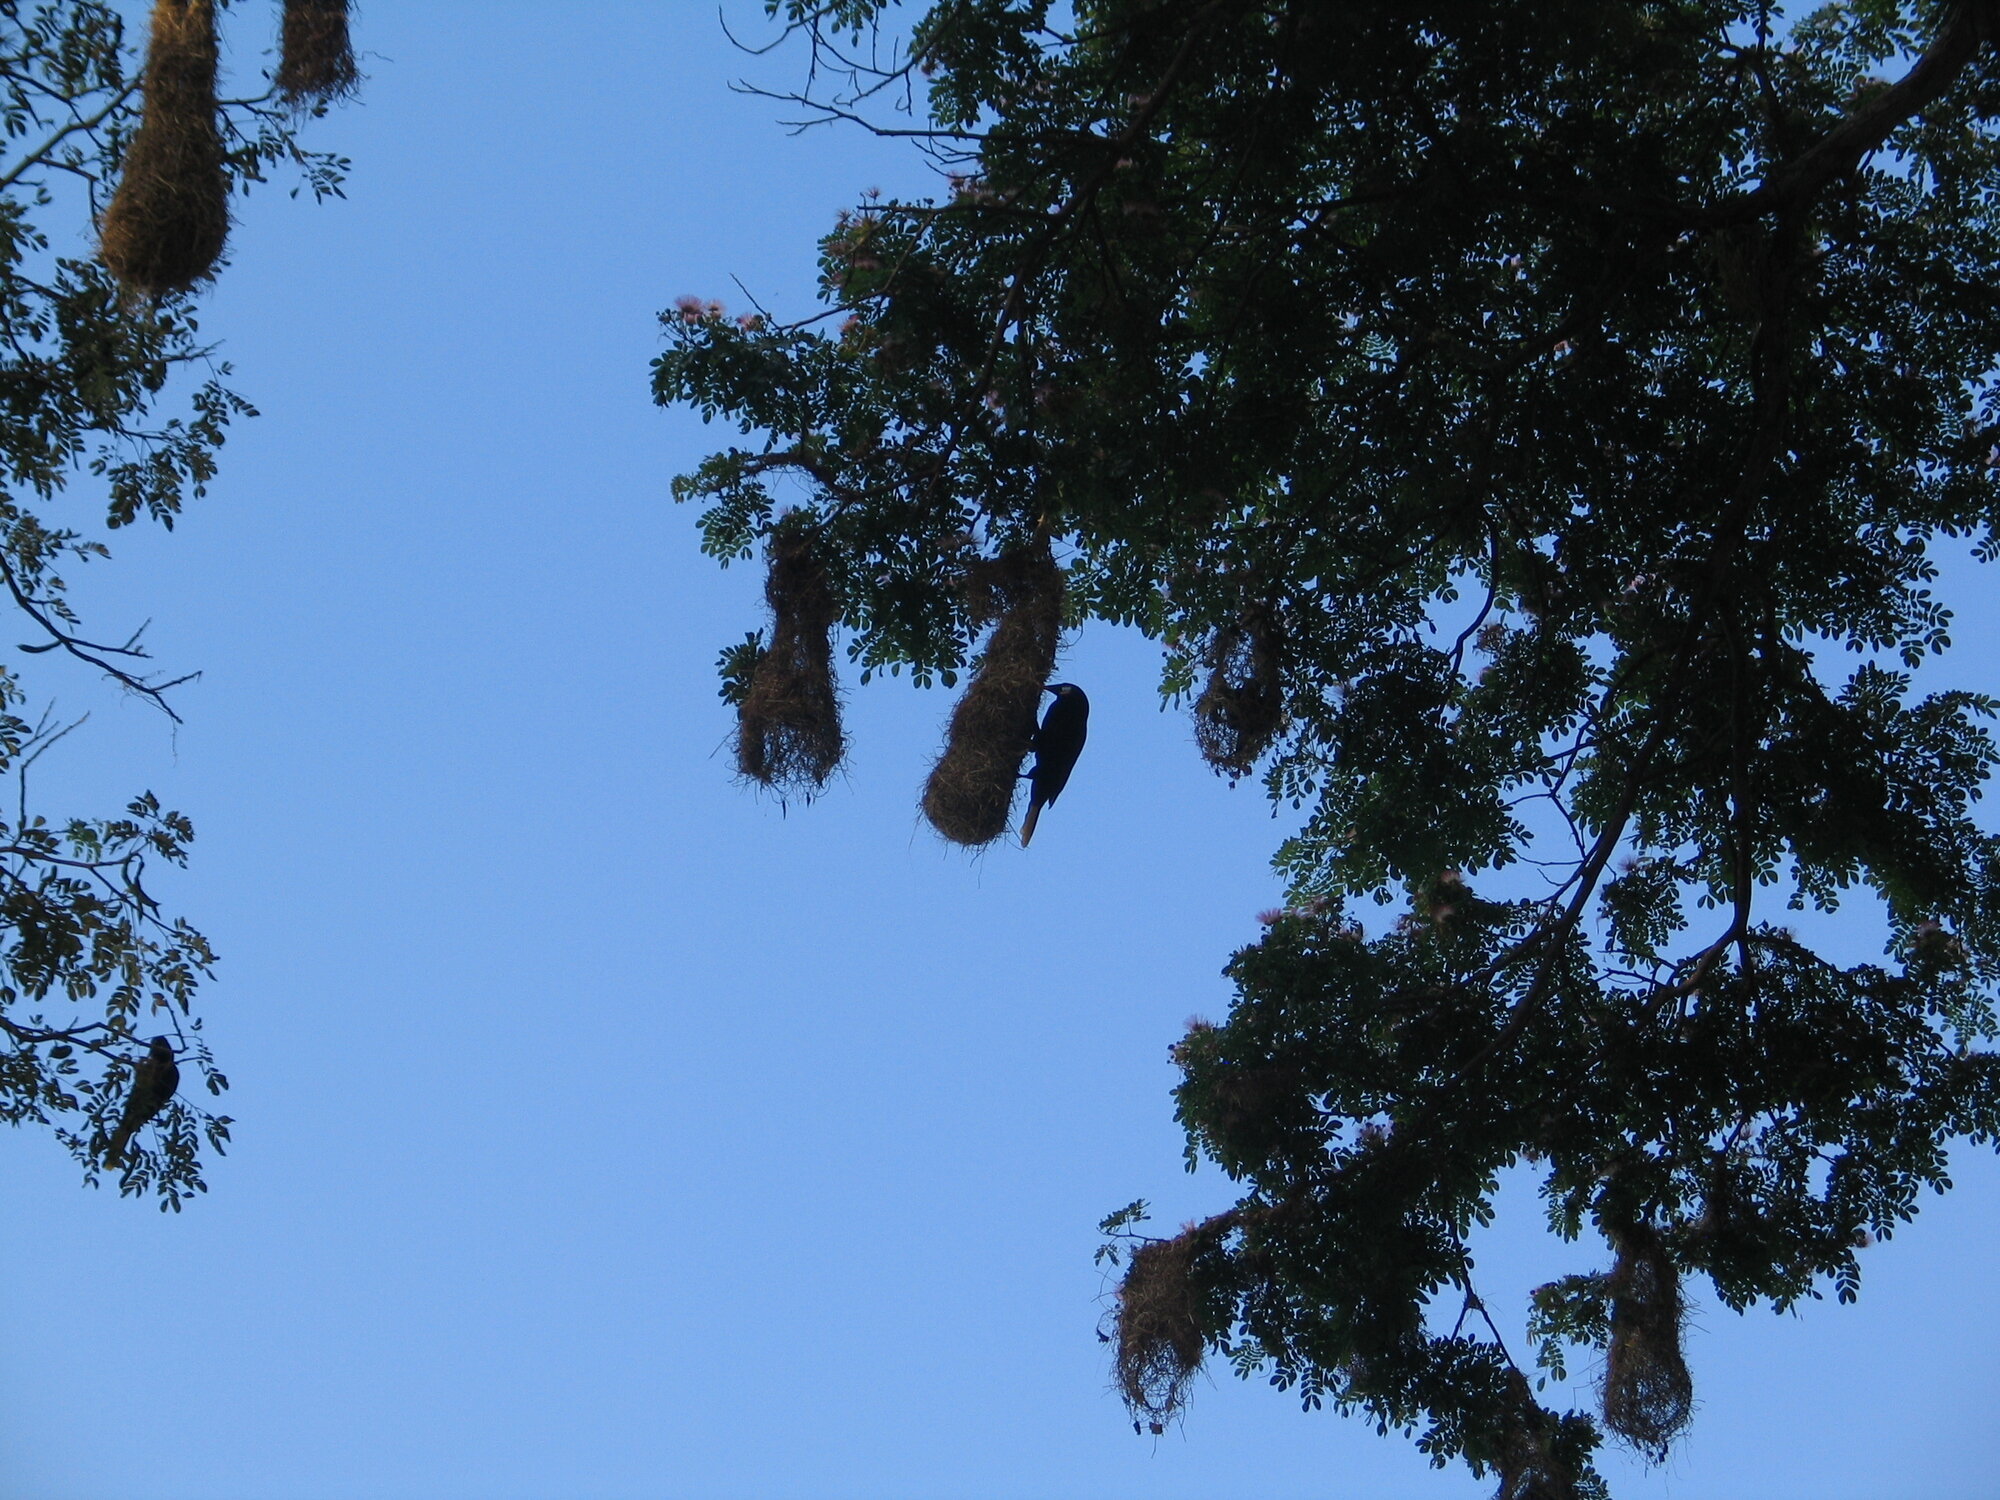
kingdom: Animalia
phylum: Chordata
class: Aves
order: Passeriformes
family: Icteridae
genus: Psarocolius
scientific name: Psarocolius montezuma
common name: Montezuma oropendola
